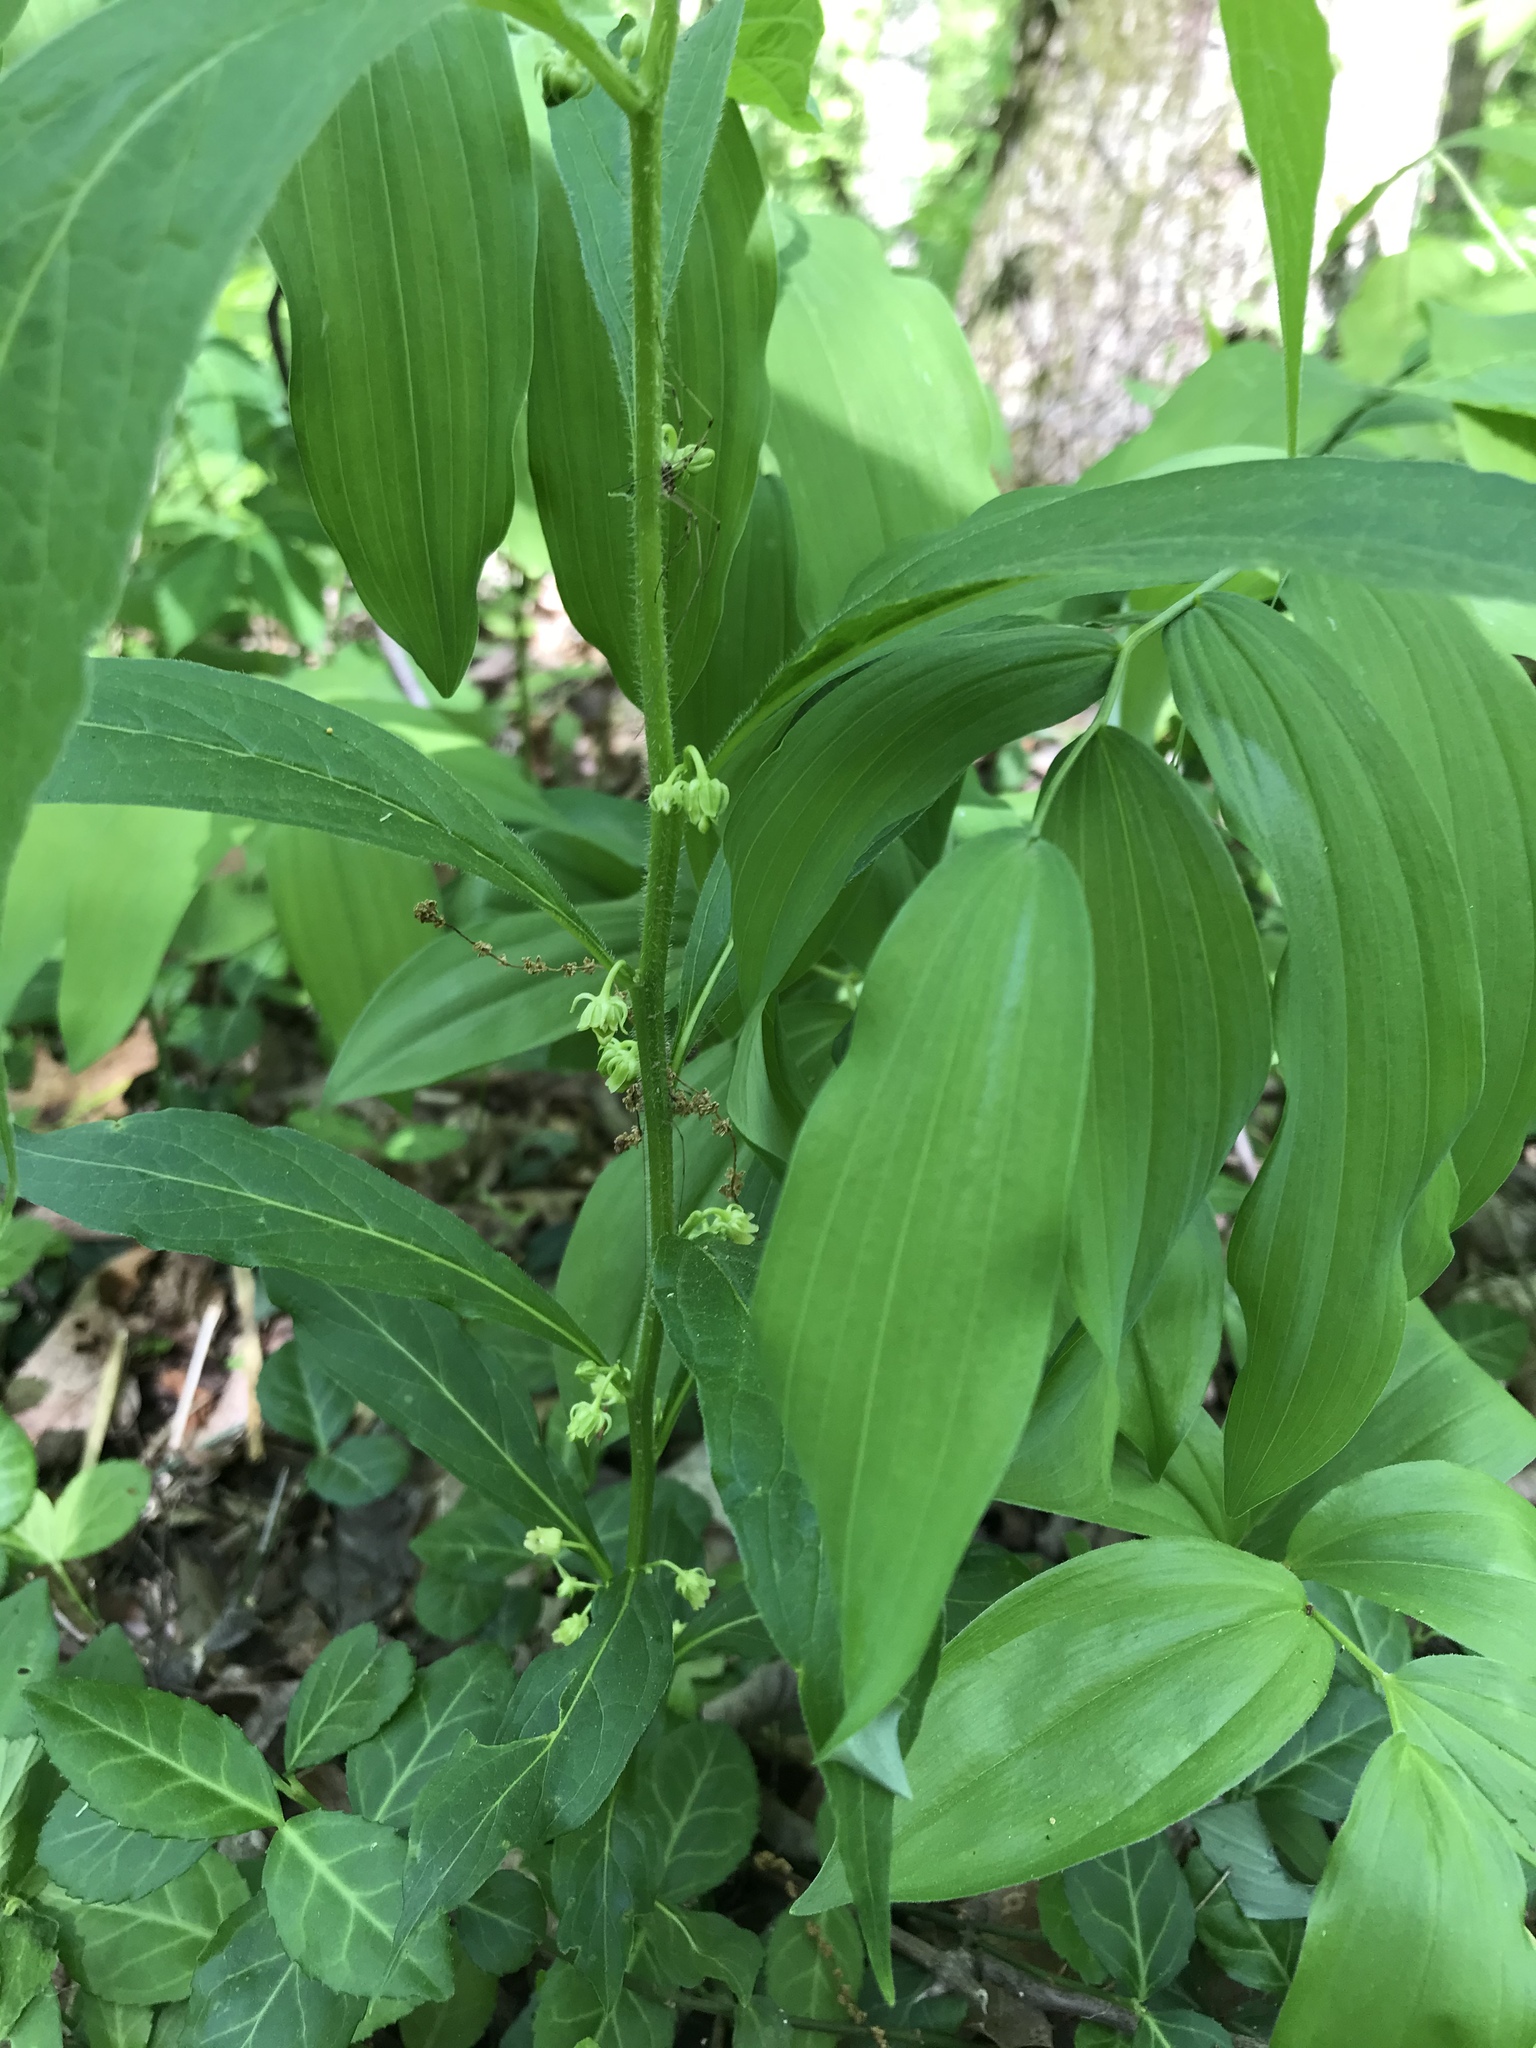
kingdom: Plantae
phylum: Tracheophyta
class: Magnoliopsida
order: Malpighiales
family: Violaceae
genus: Cubelium
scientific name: Cubelium concolor
